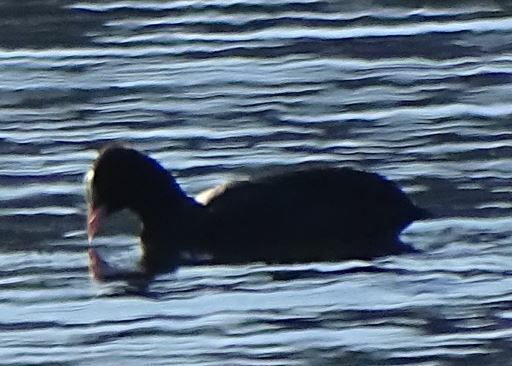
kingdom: Animalia
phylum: Chordata
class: Aves
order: Gruiformes
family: Rallidae
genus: Fulica
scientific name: Fulica atra
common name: Eurasian coot
